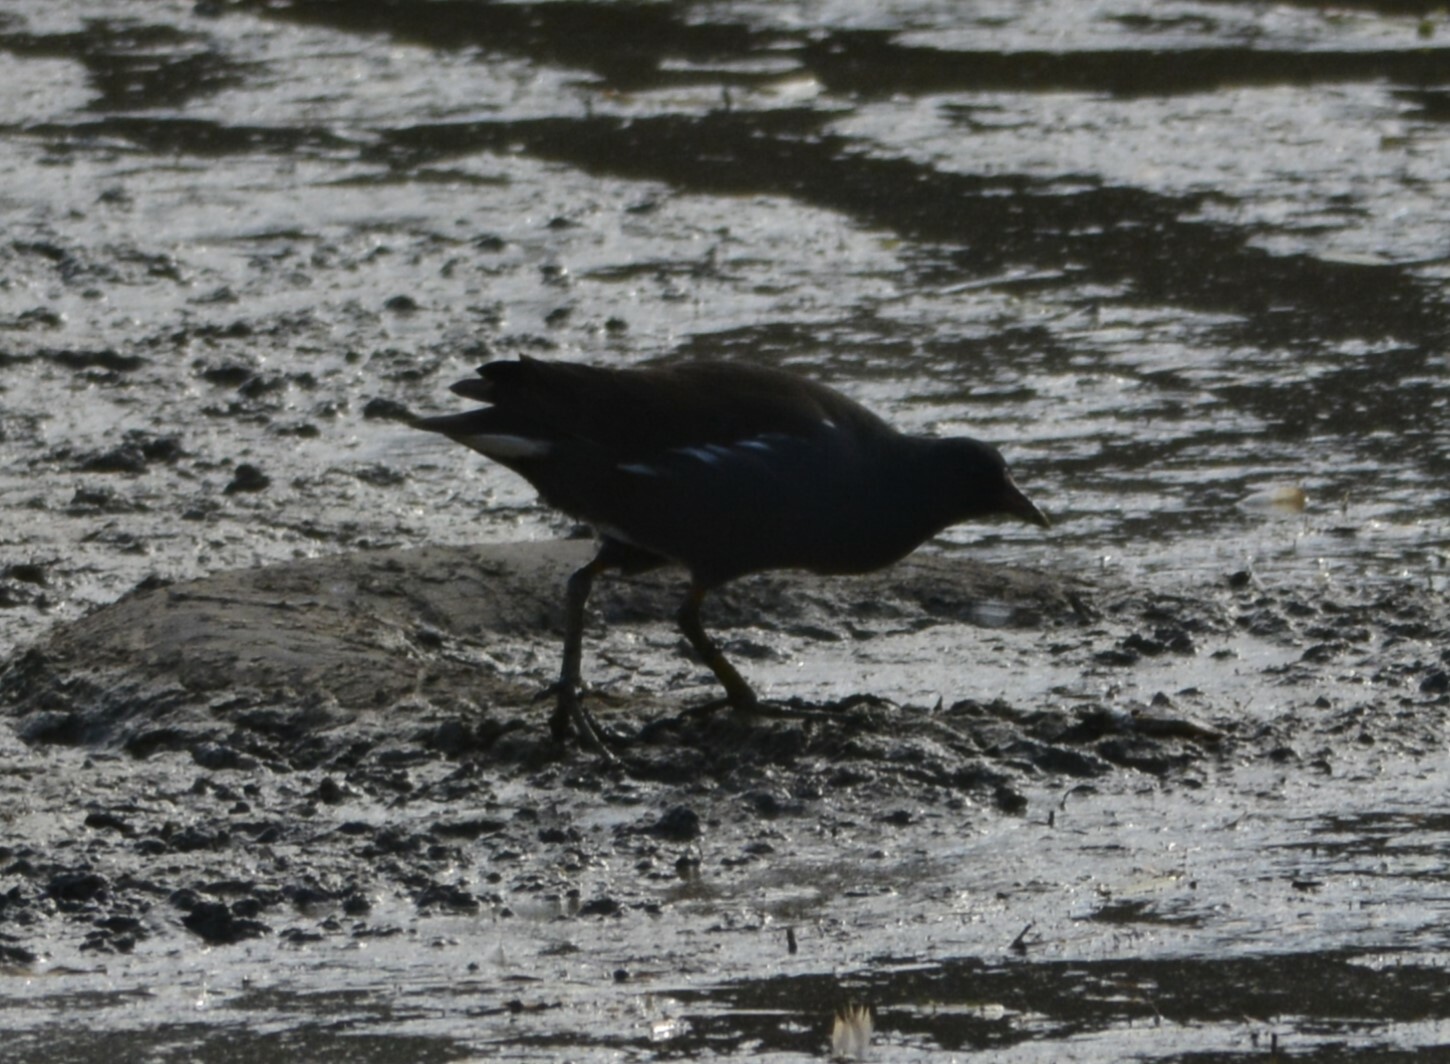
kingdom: Animalia
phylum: Chordata
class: Aves
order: Gruiformes
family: Rallidae
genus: Gallinula
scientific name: Gallinula chloropus
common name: Common moorhen
